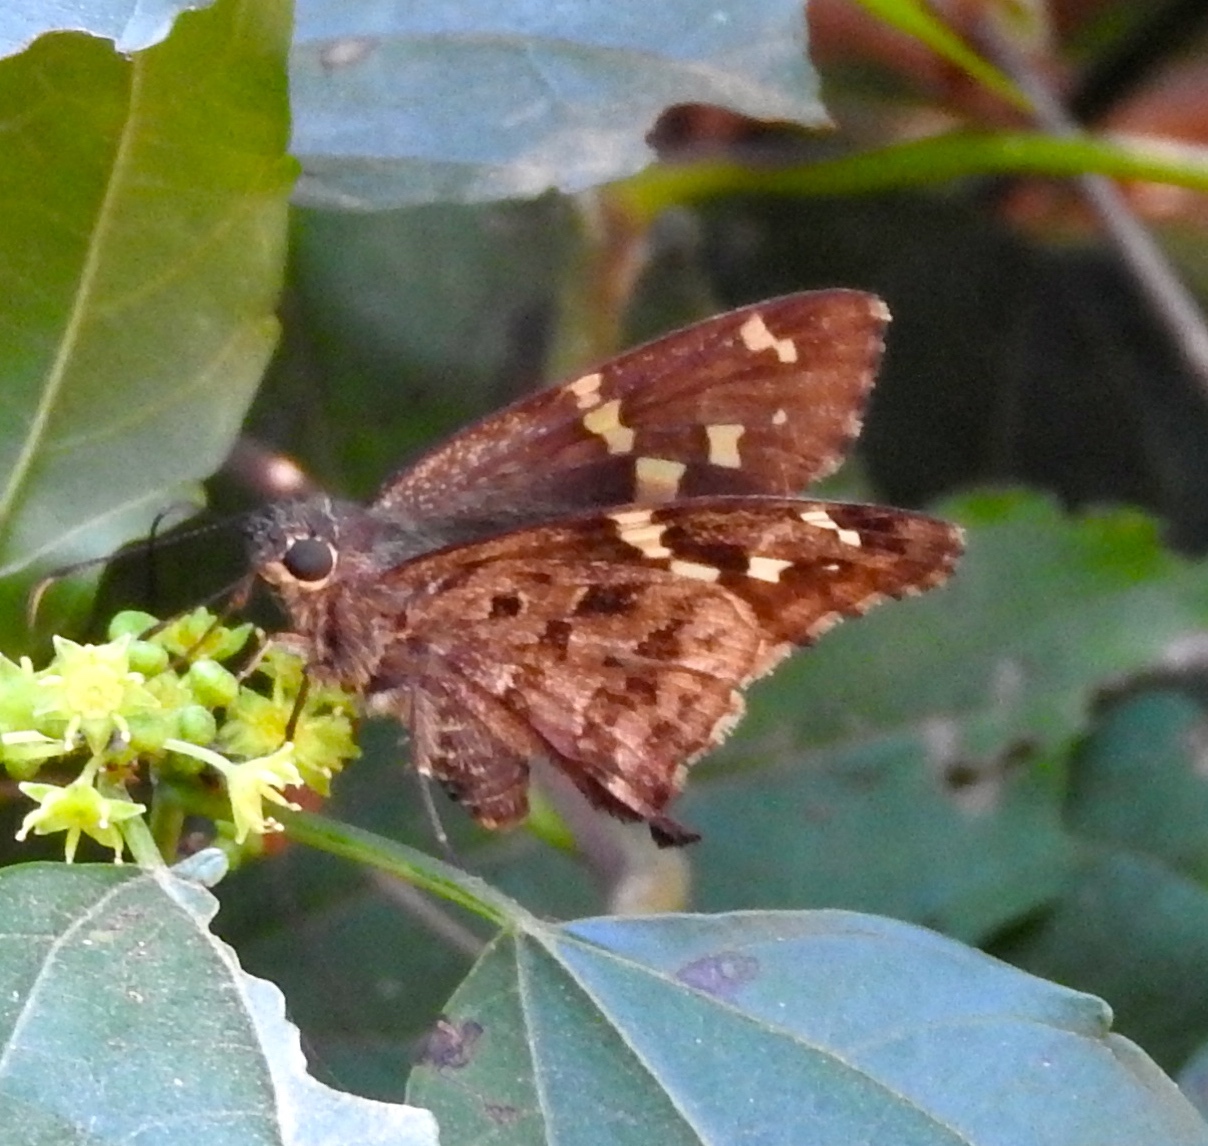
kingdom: Animalia
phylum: Arthropoda
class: Insecta
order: Lepidoptera
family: Hesperiidae
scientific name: Hesperiidae
